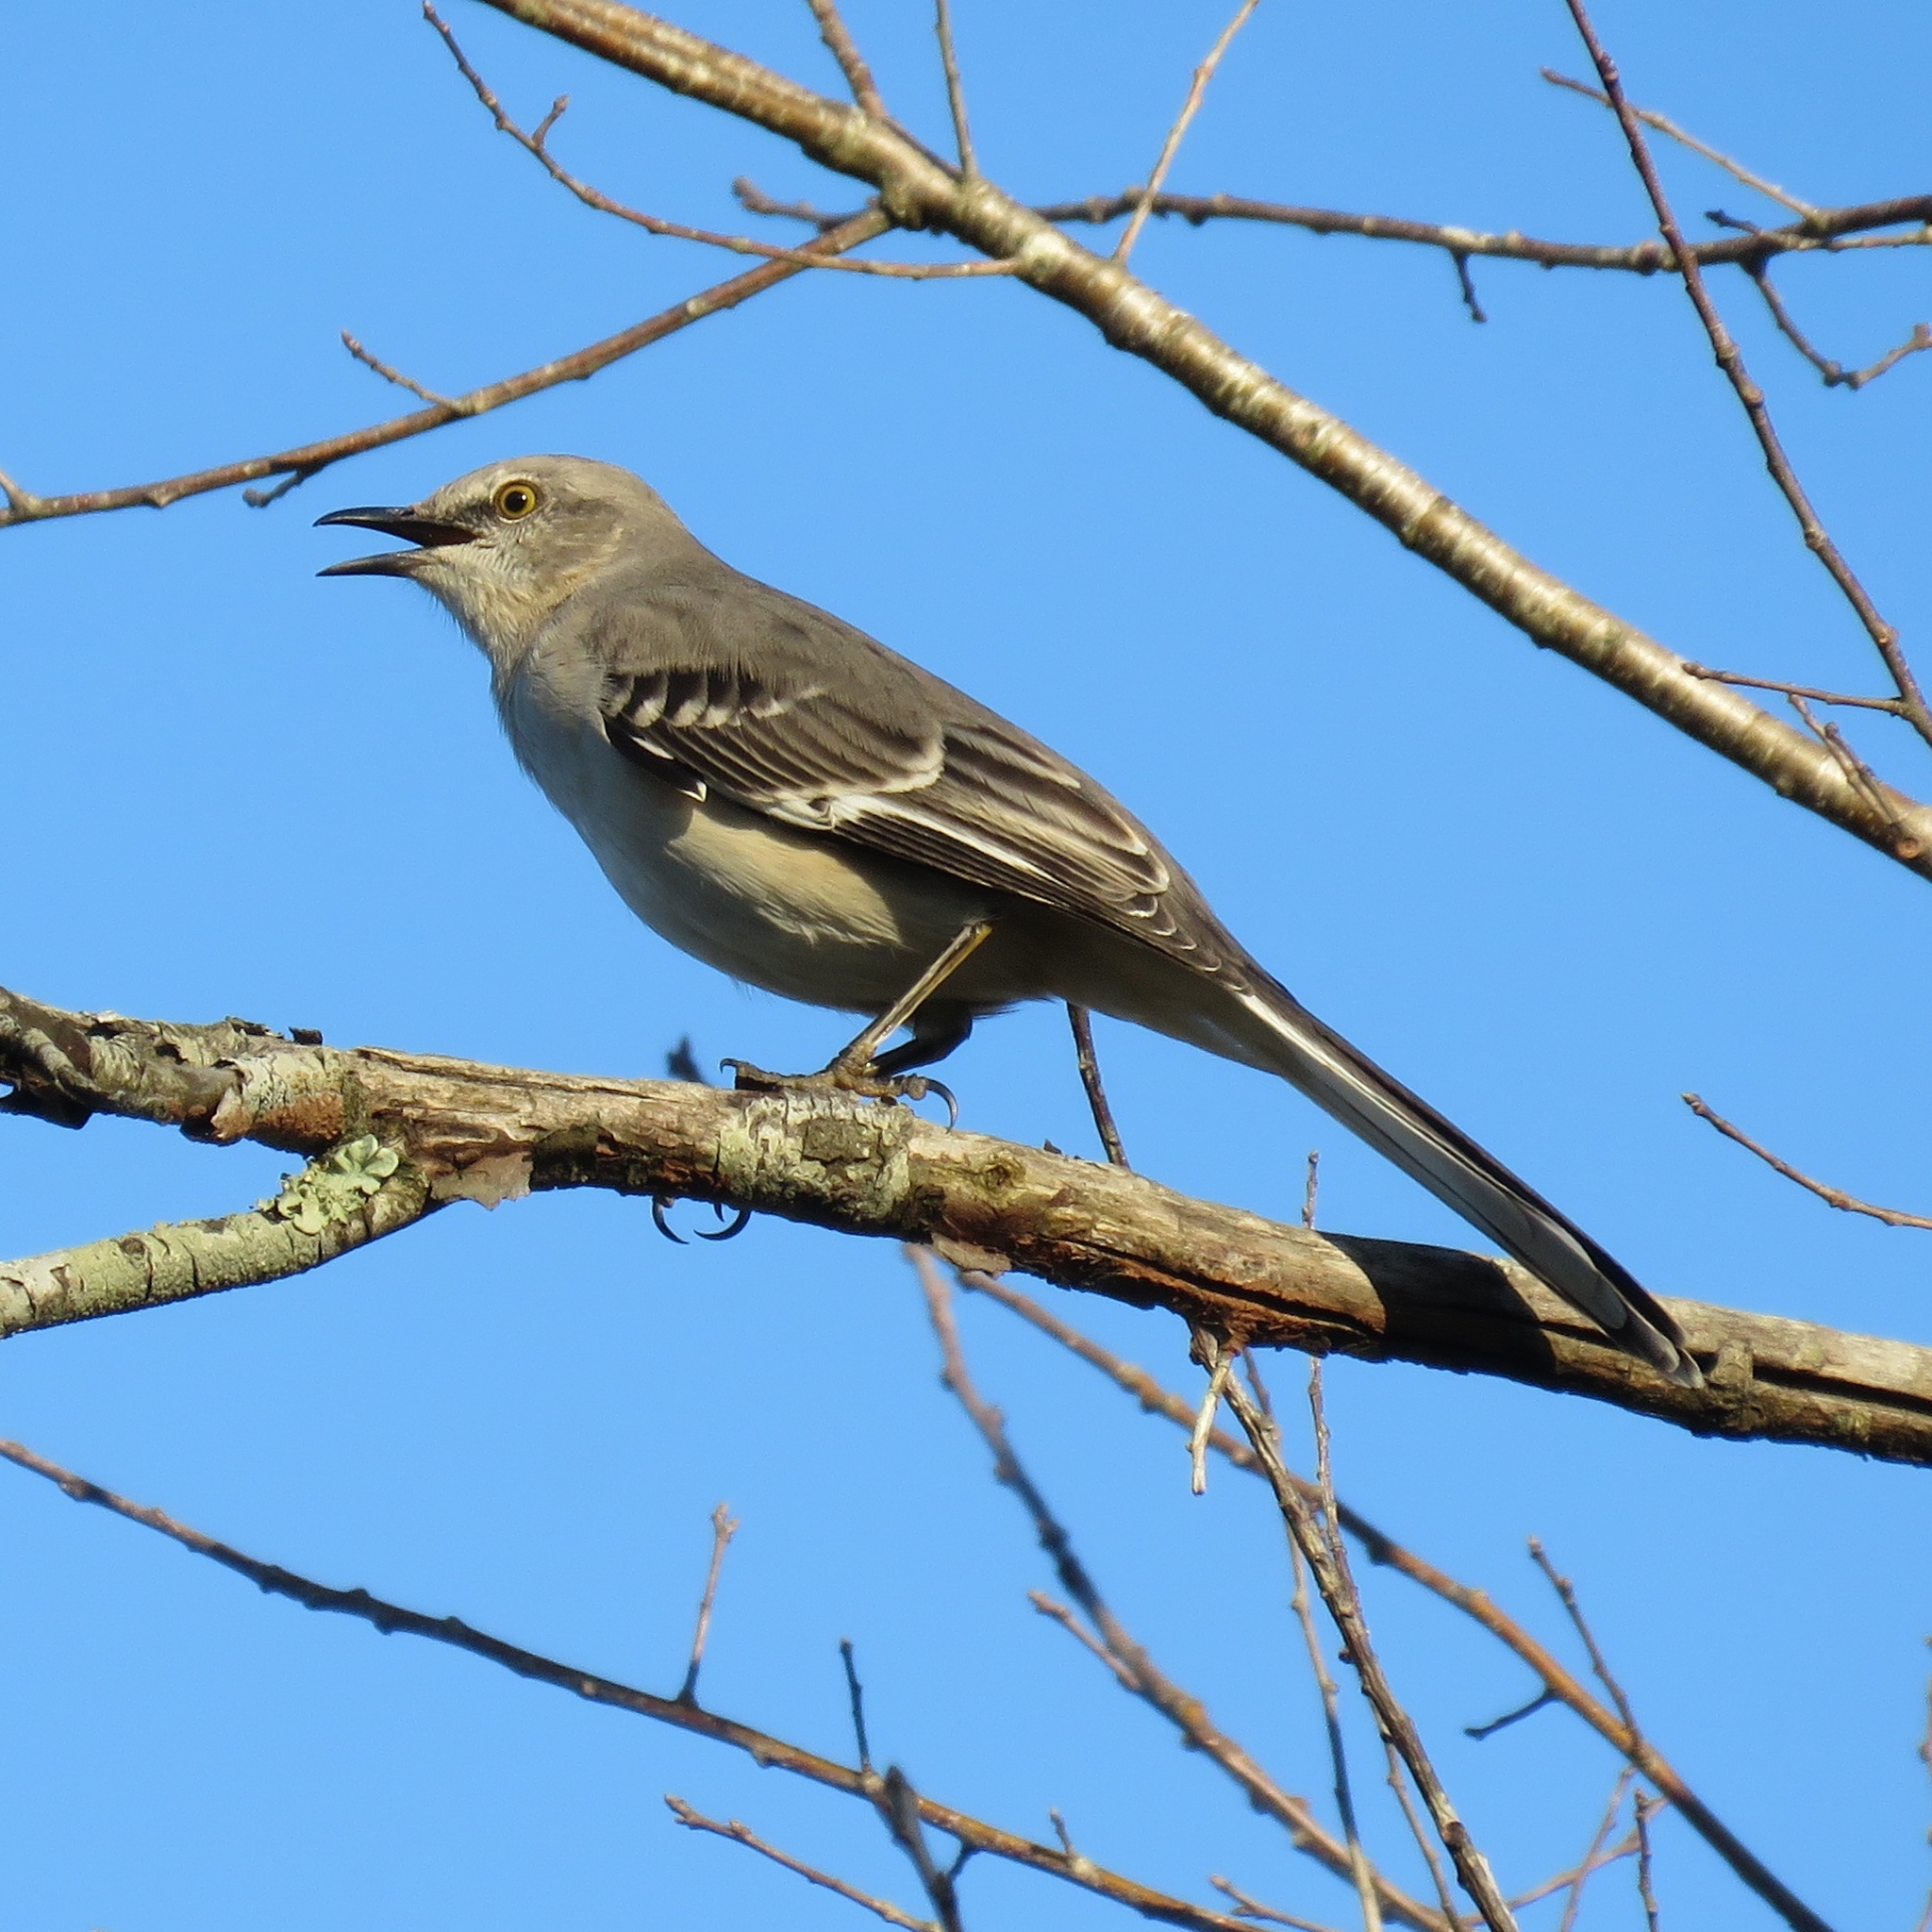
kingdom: Animalia
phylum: Chordata
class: Aves
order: Passeriformes
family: Mimidae
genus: Mimus
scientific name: Mimus polyglottos
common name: Northern mockingbird
